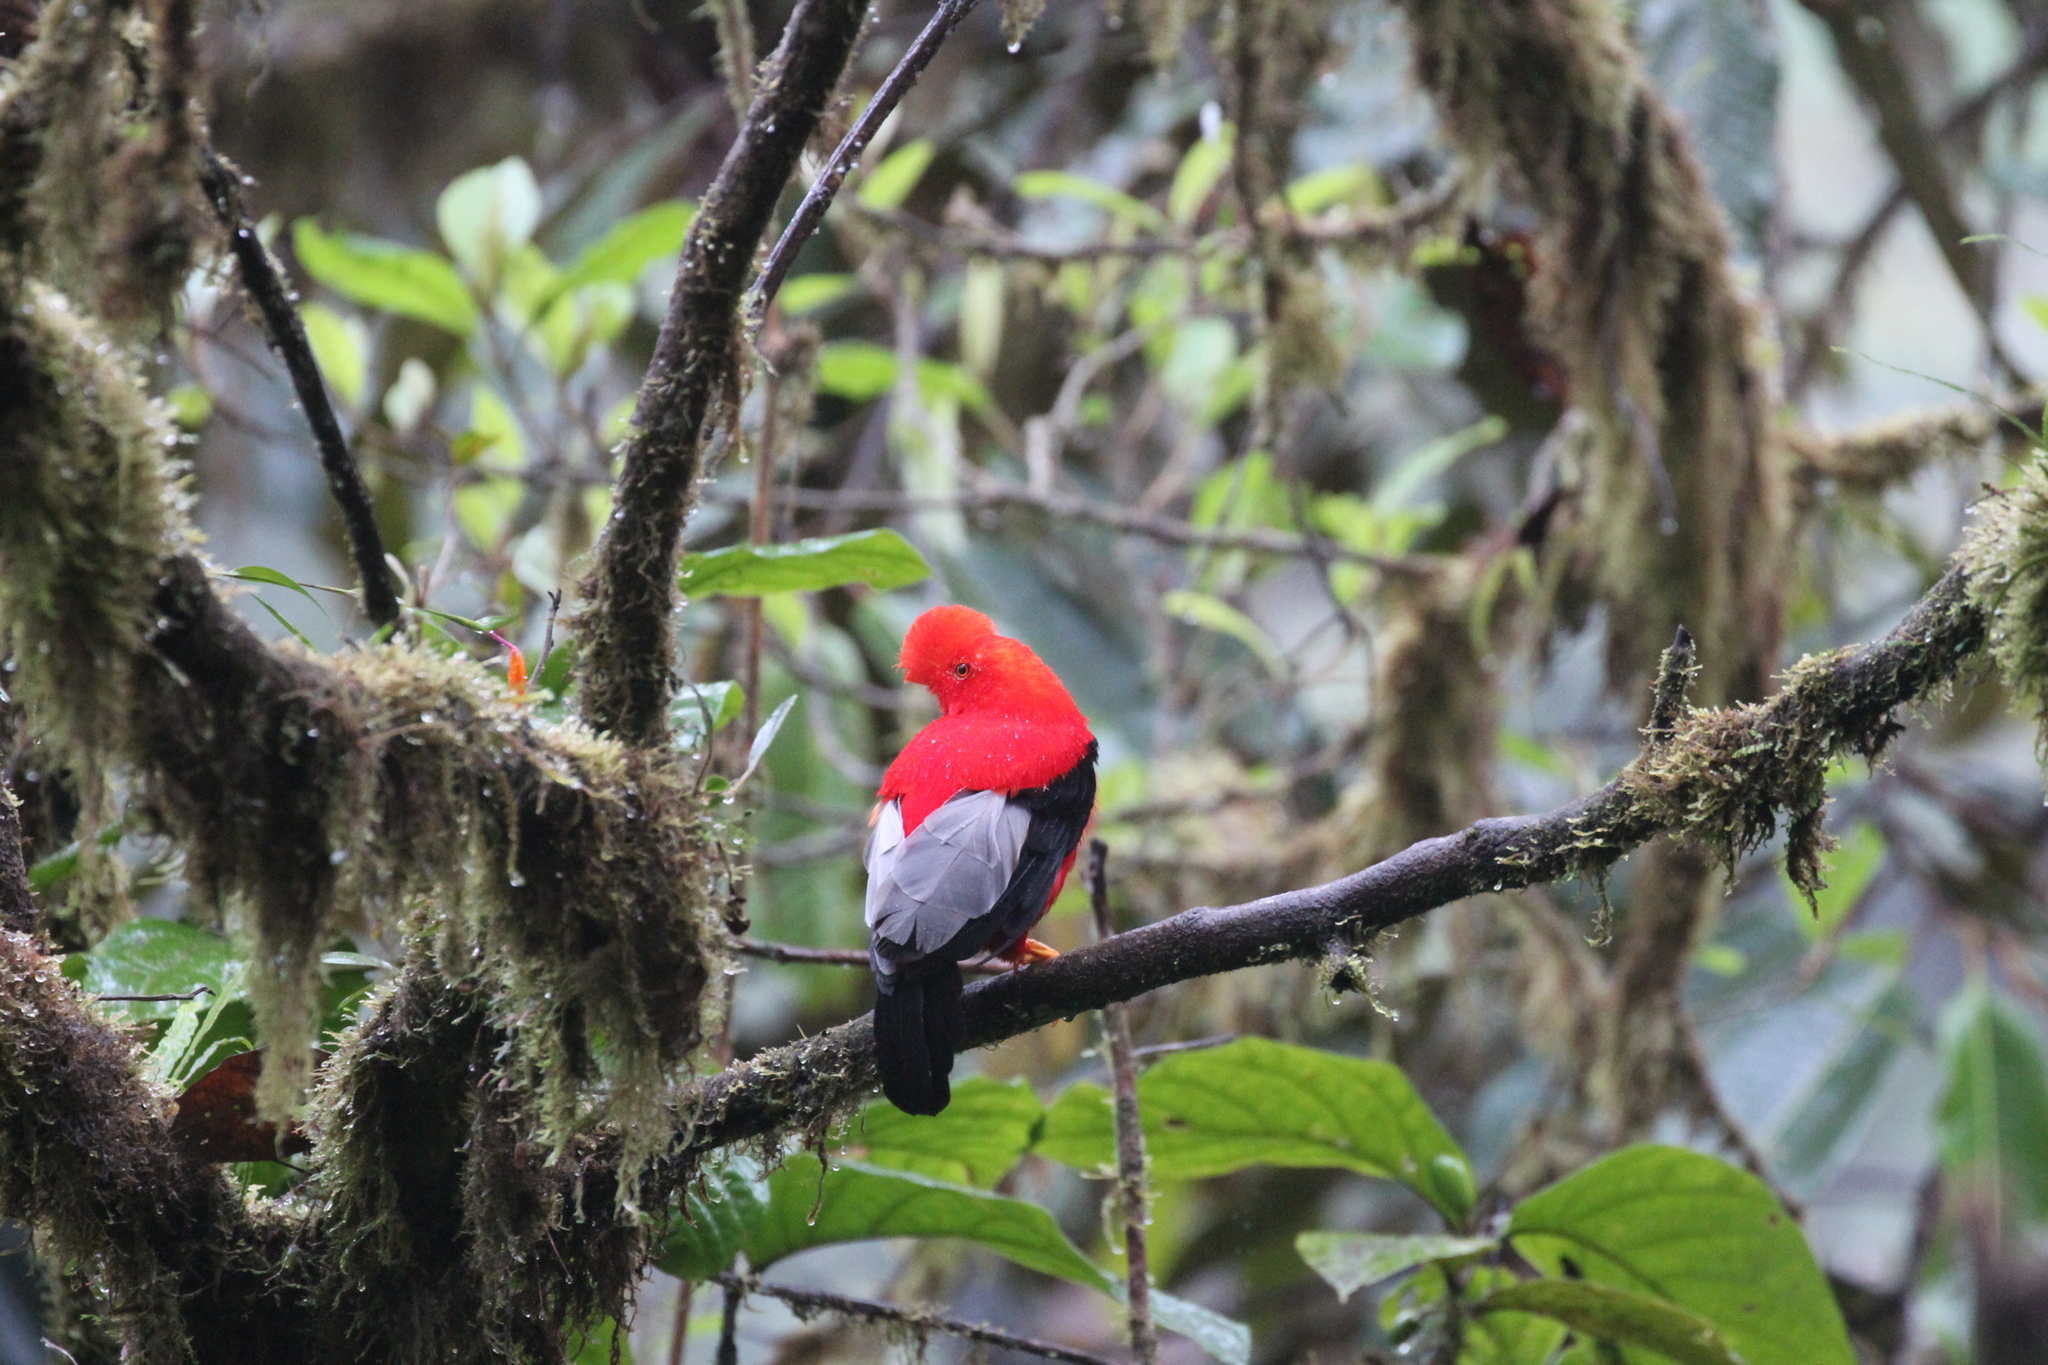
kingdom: Animalia
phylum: Chordata
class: Aves
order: Passeriformes
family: Cotingidae
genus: Rupicola
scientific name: Rupicola peruvianus
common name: Andean cock-of-the-rock
